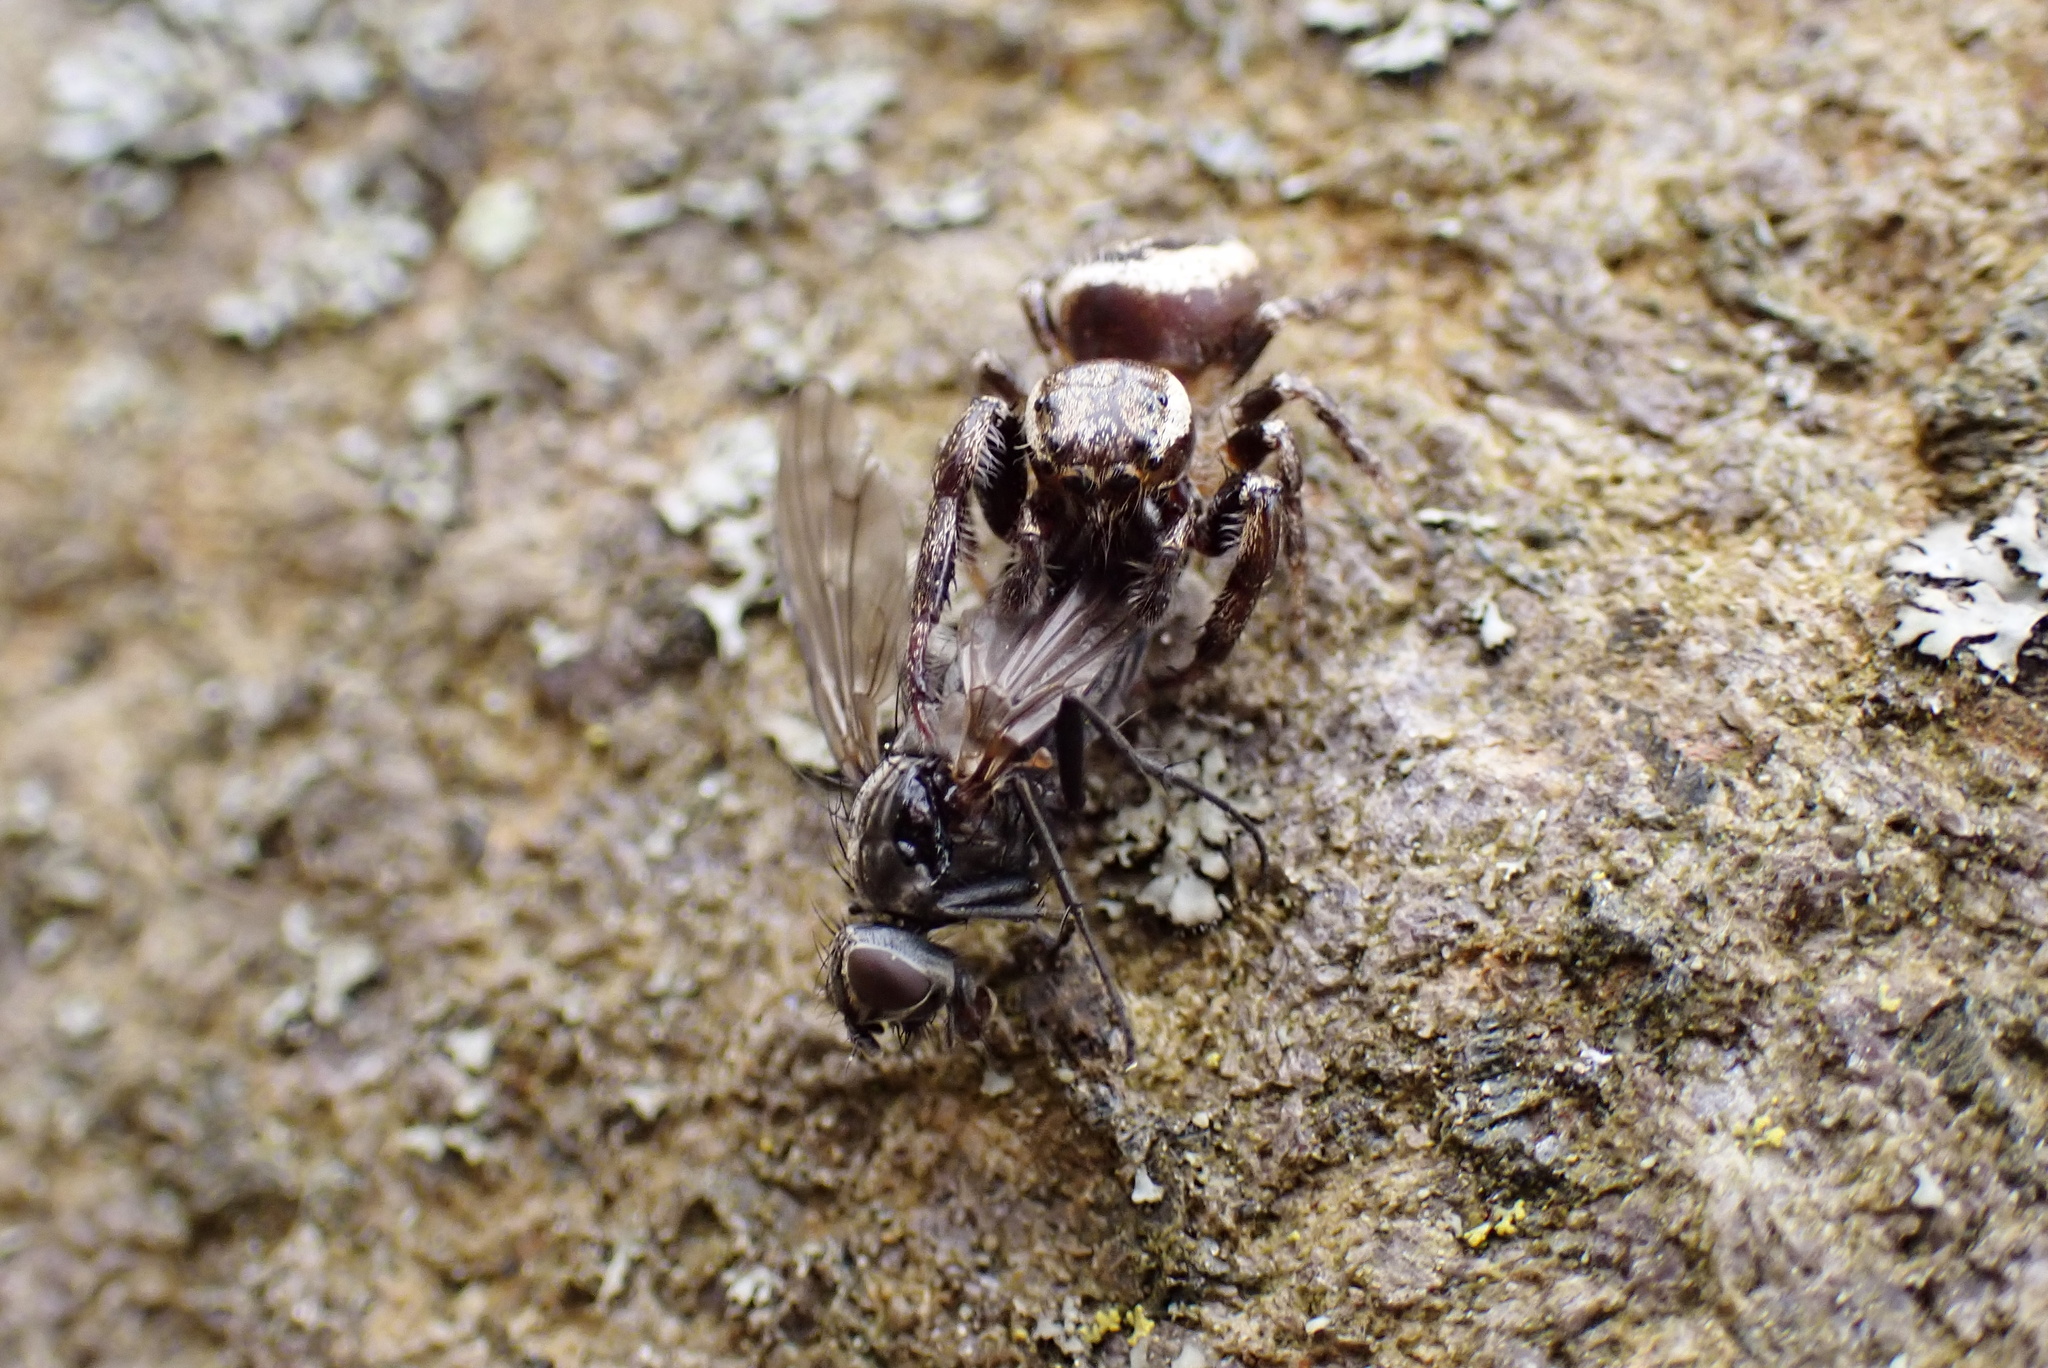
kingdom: Animalia
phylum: Arthropoda
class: Arachnida
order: Araneae
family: Salticidae
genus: Eris
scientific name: Eris militaris
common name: Bronze jumper
